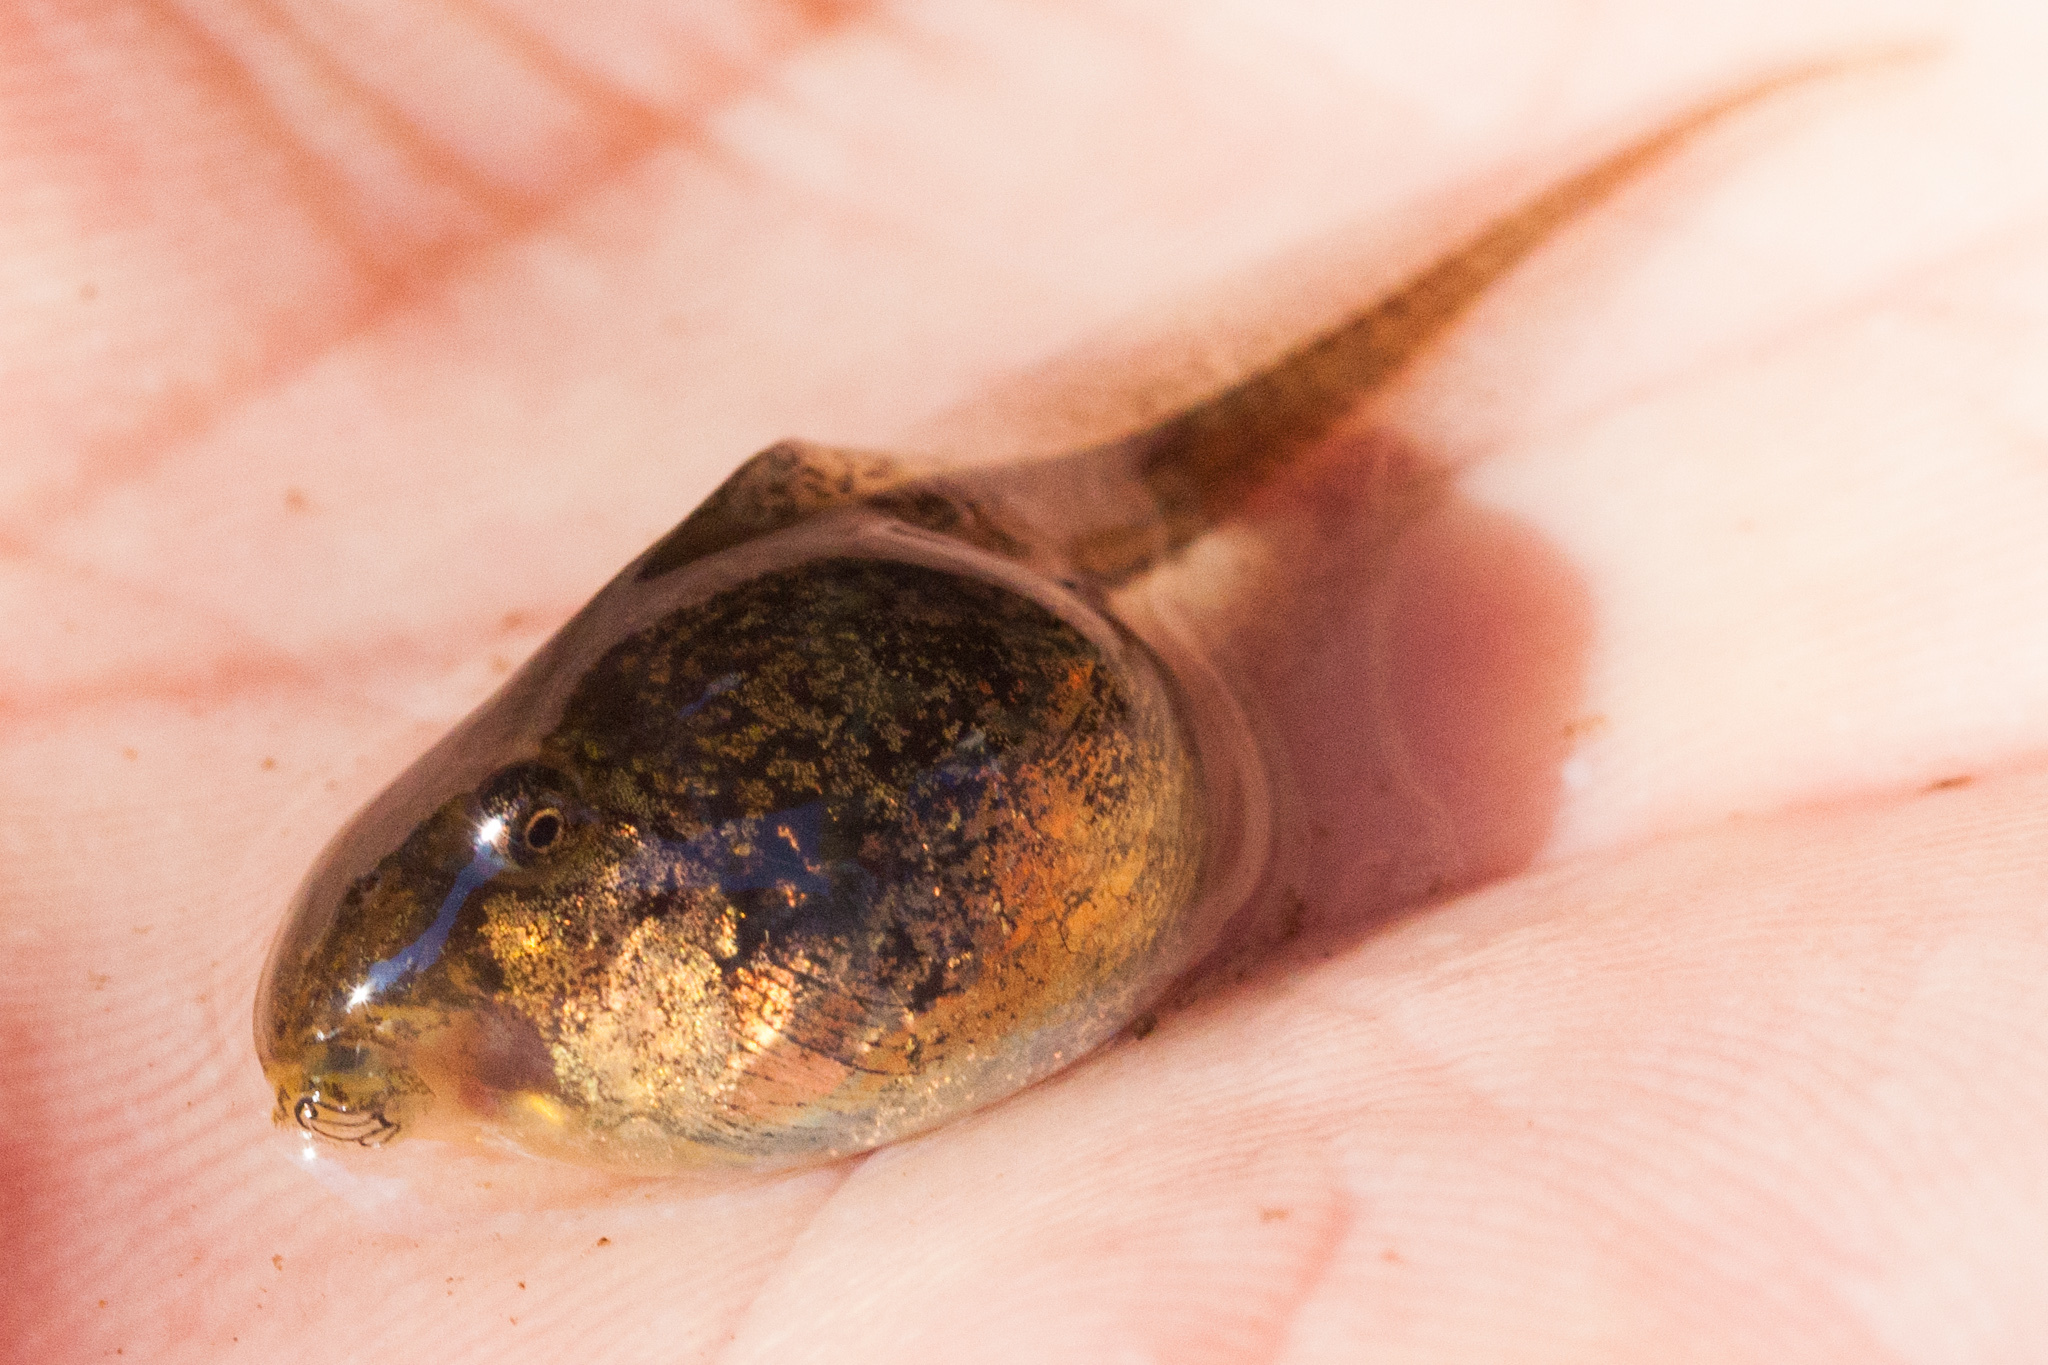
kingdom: Animalia
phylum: Chordata
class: Amphibia
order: Anura
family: Hylidae
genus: Pseudacris
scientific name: Pseudacris regilla
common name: Pacific chorus frog
